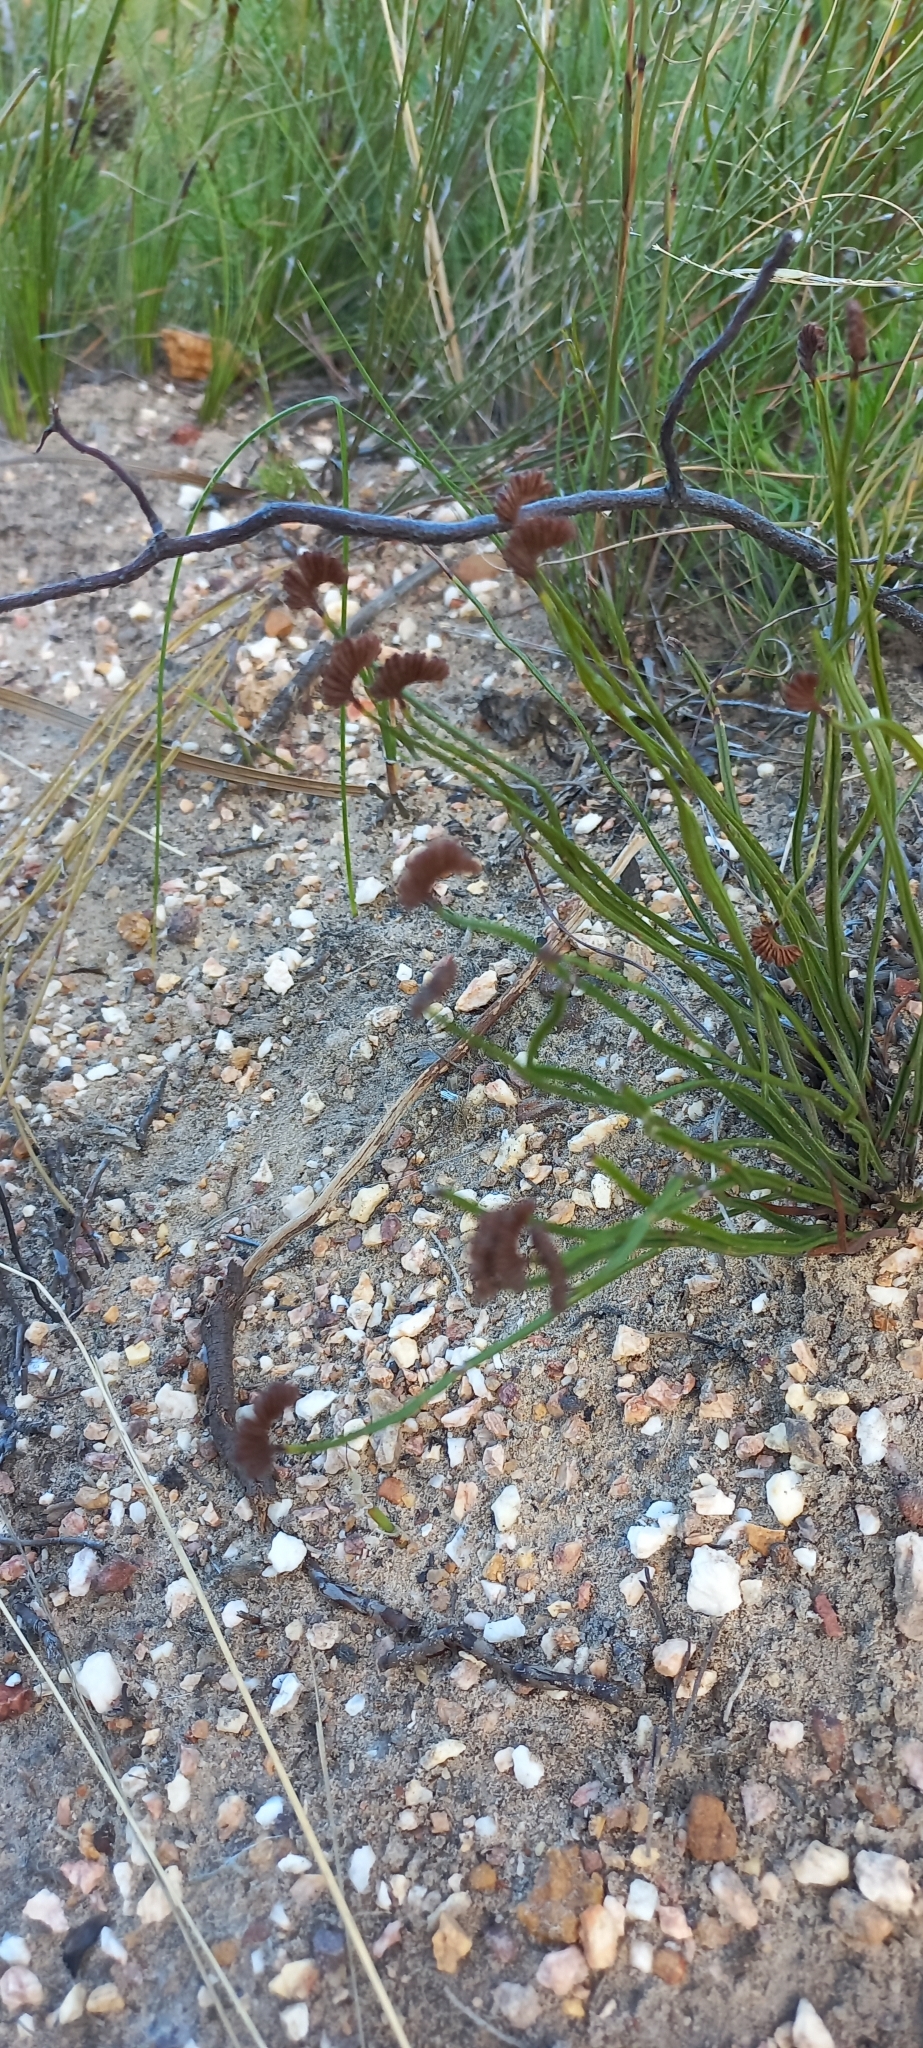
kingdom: Plantae
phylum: Tracheophyta
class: Polypodiopsida
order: Schizaeales
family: Schizaeaceae
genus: Schizaea
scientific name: Schizaea pectinata
